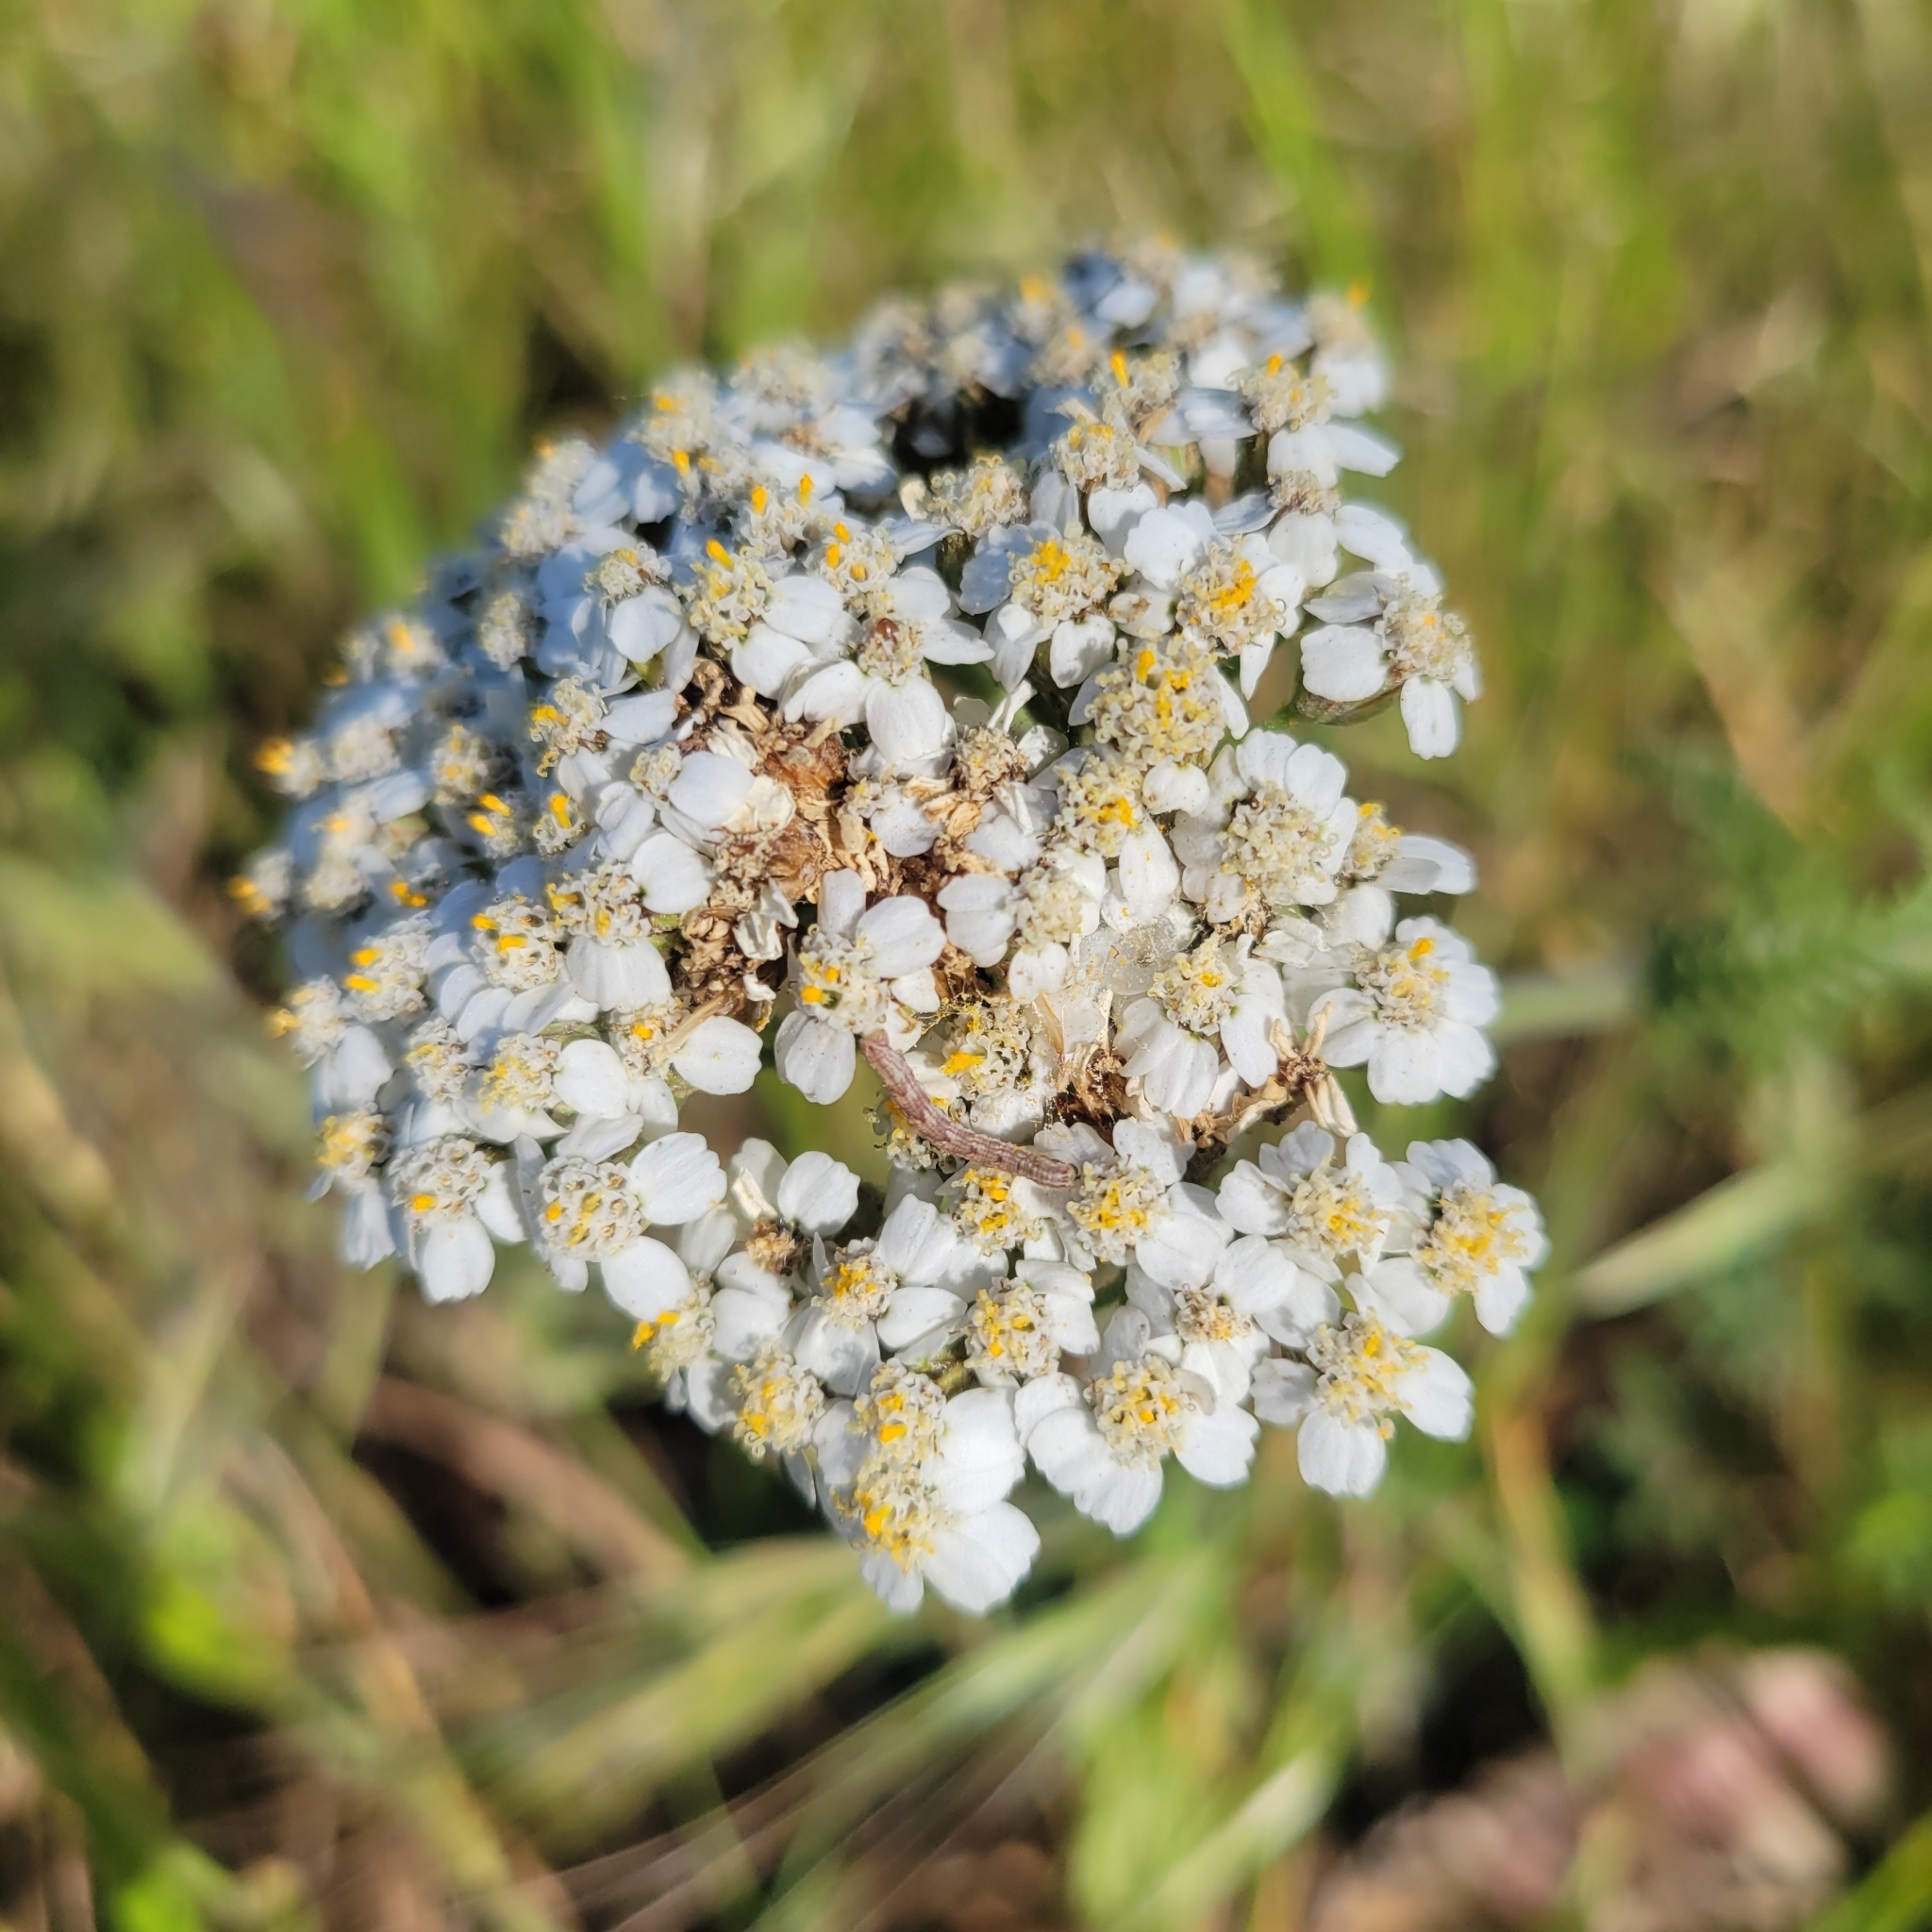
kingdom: Plantae
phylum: Tracheophyta
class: Magnoliopsida
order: Asterales
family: Asteraceae
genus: Achillea
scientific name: Achillea millefolium
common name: Yarrow
